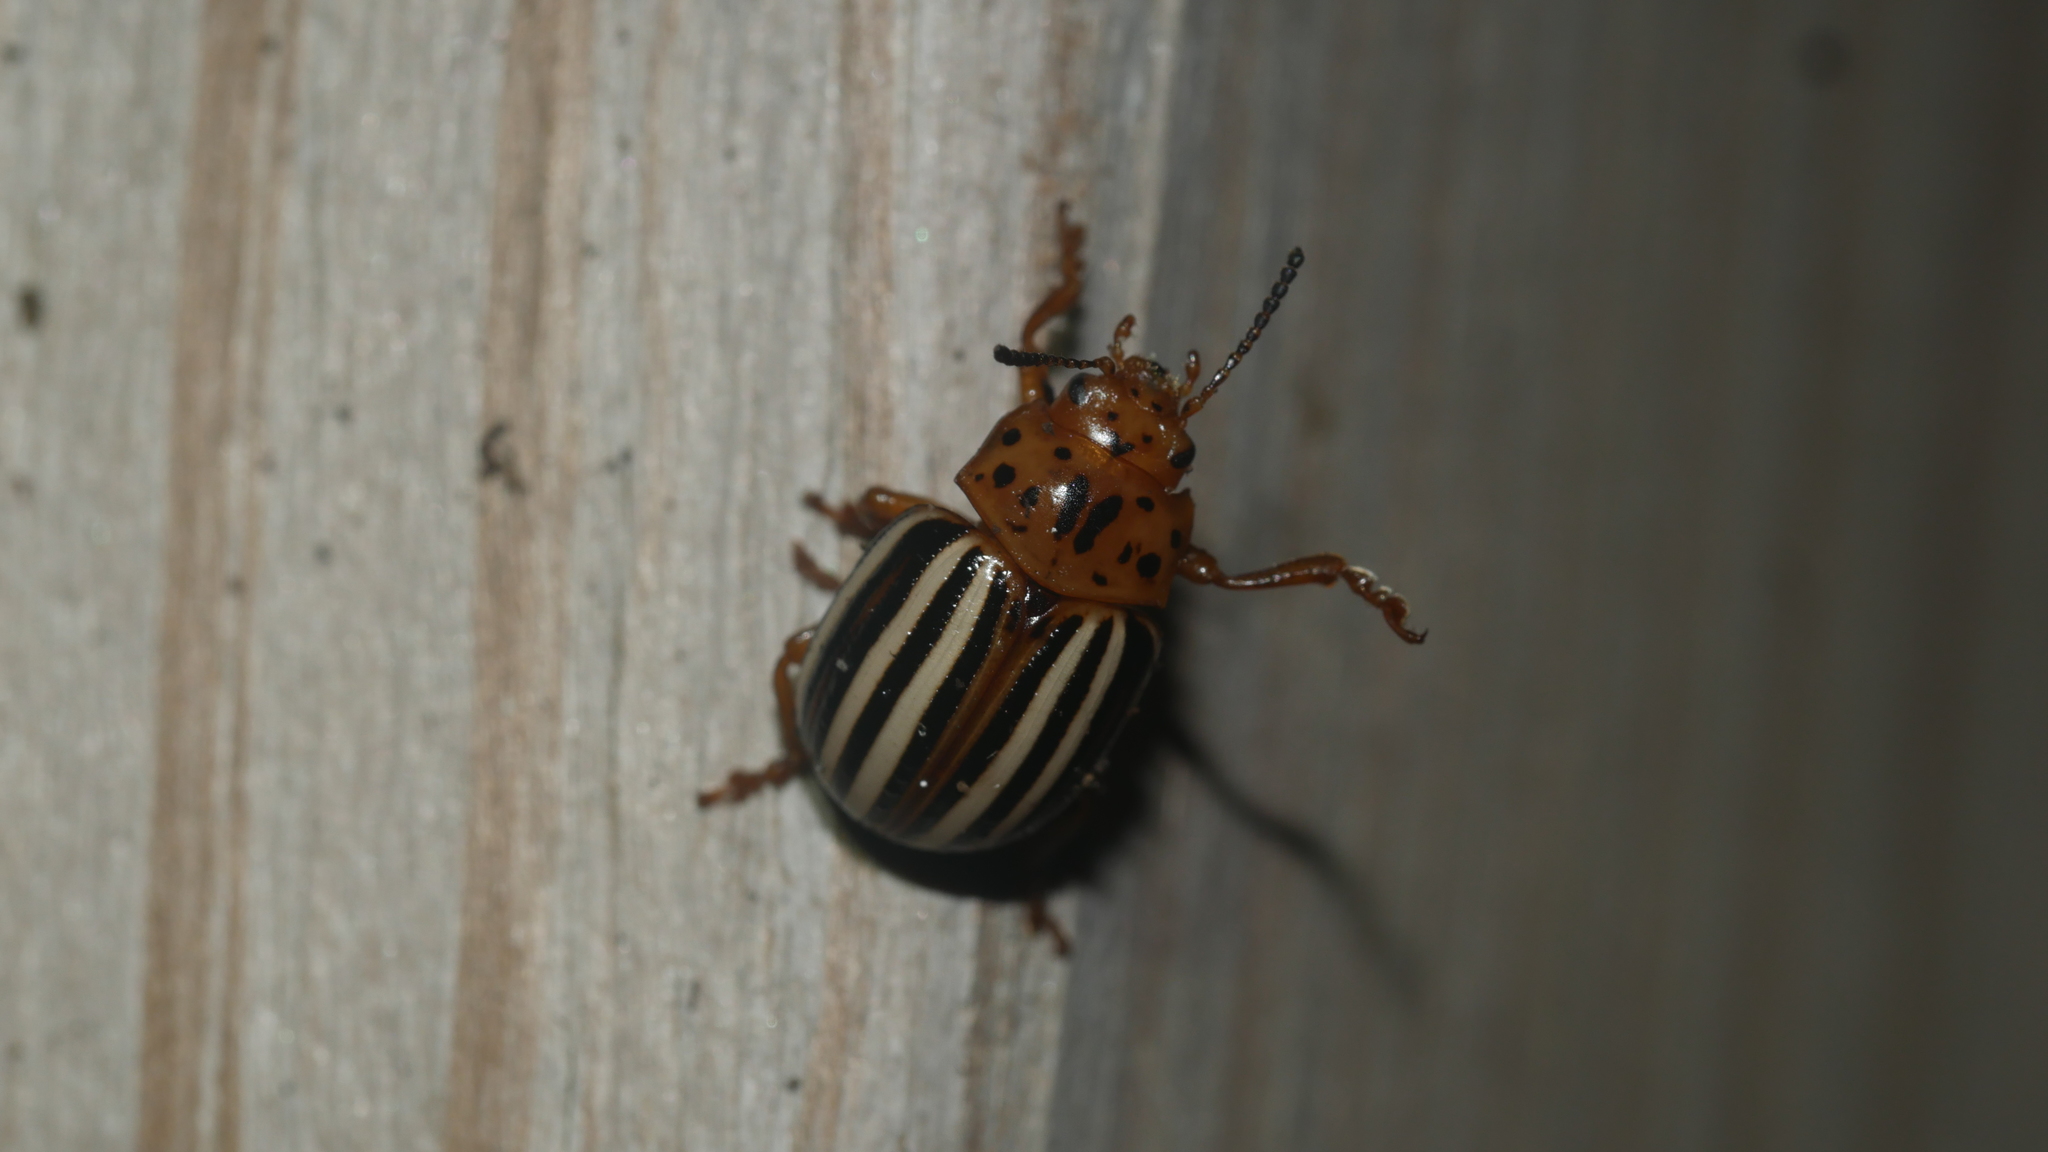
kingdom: Animalia
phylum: Arthropoda
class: Insecta
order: Coleoptera
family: Chrysomelidae
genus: Leptinotarsa
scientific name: Leptinotarsa juncta
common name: False potato beetle
